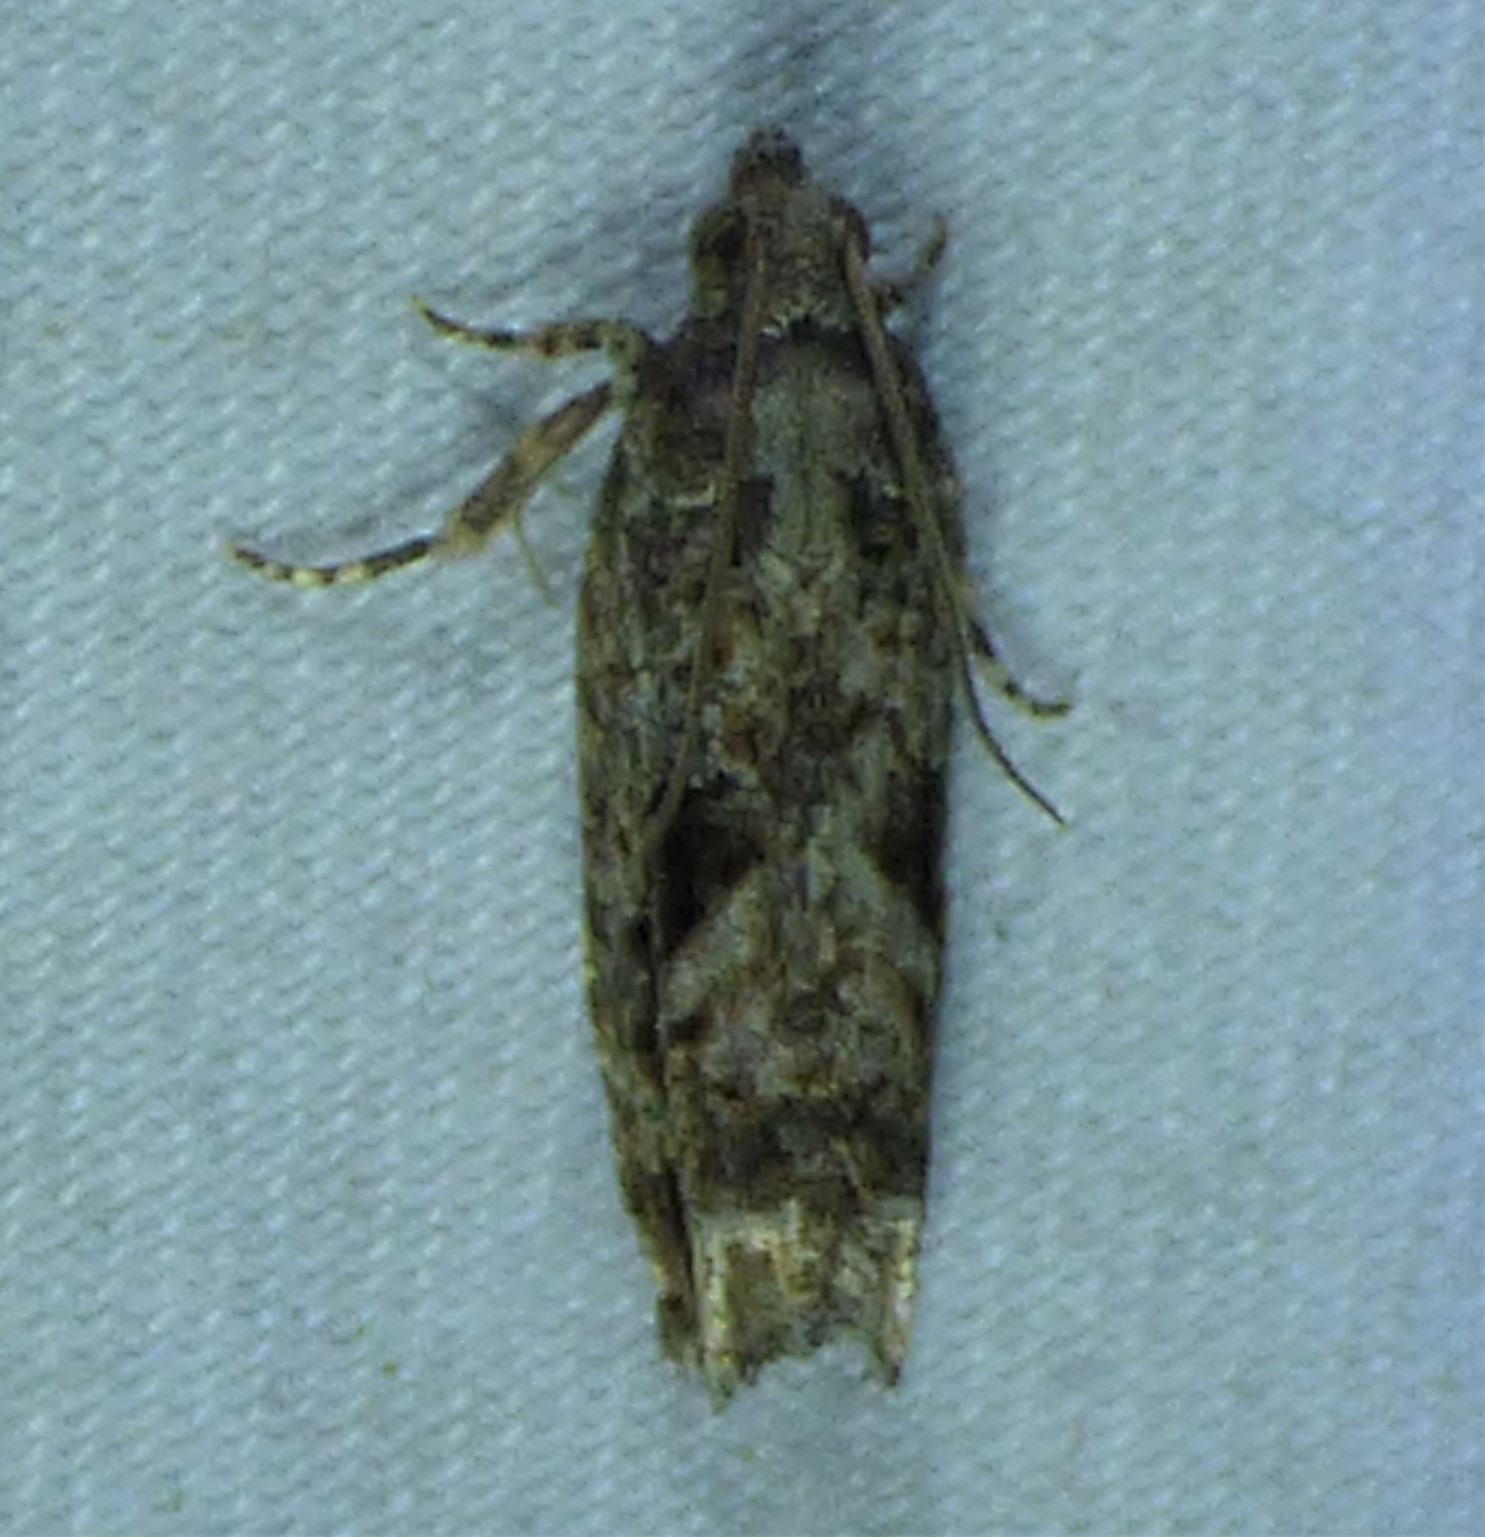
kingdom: Animalia
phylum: Arthropoda
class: Insecta
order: Lepidoptera
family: Tortricidae
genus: Gretchena
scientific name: Gretchena bolliana
